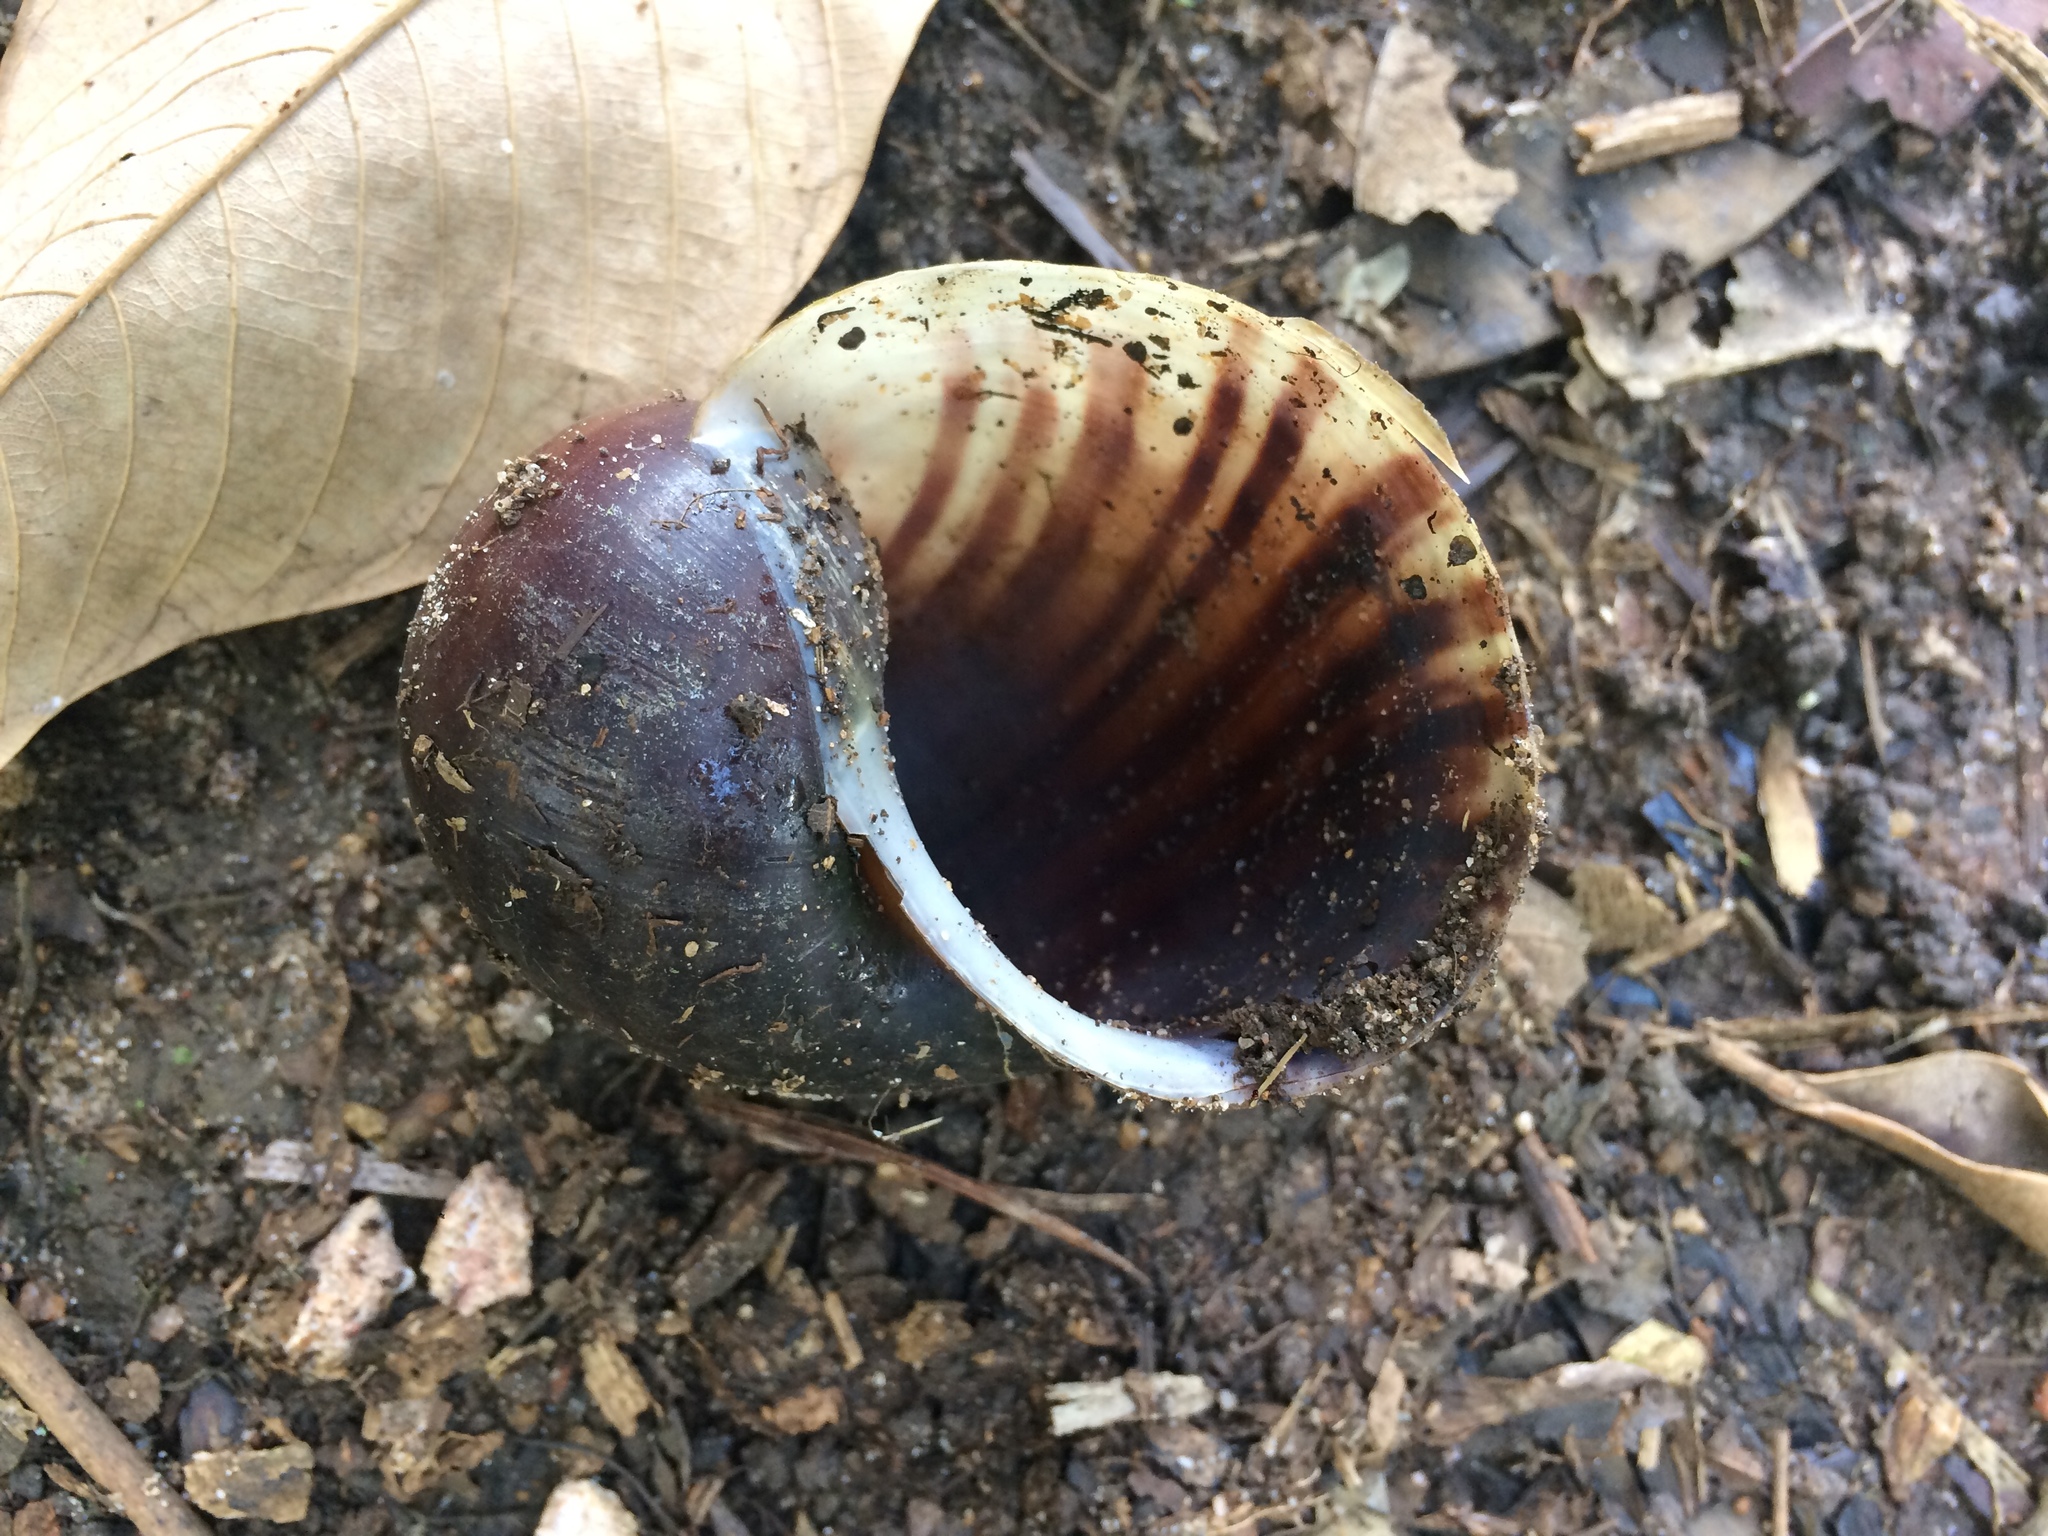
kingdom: Animalia
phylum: Mollusca
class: Gastropoda
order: Architaenioglossa
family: Ampullariidae
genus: Pomacea
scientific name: Pomacea canaliculata
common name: Channeled applesnail
